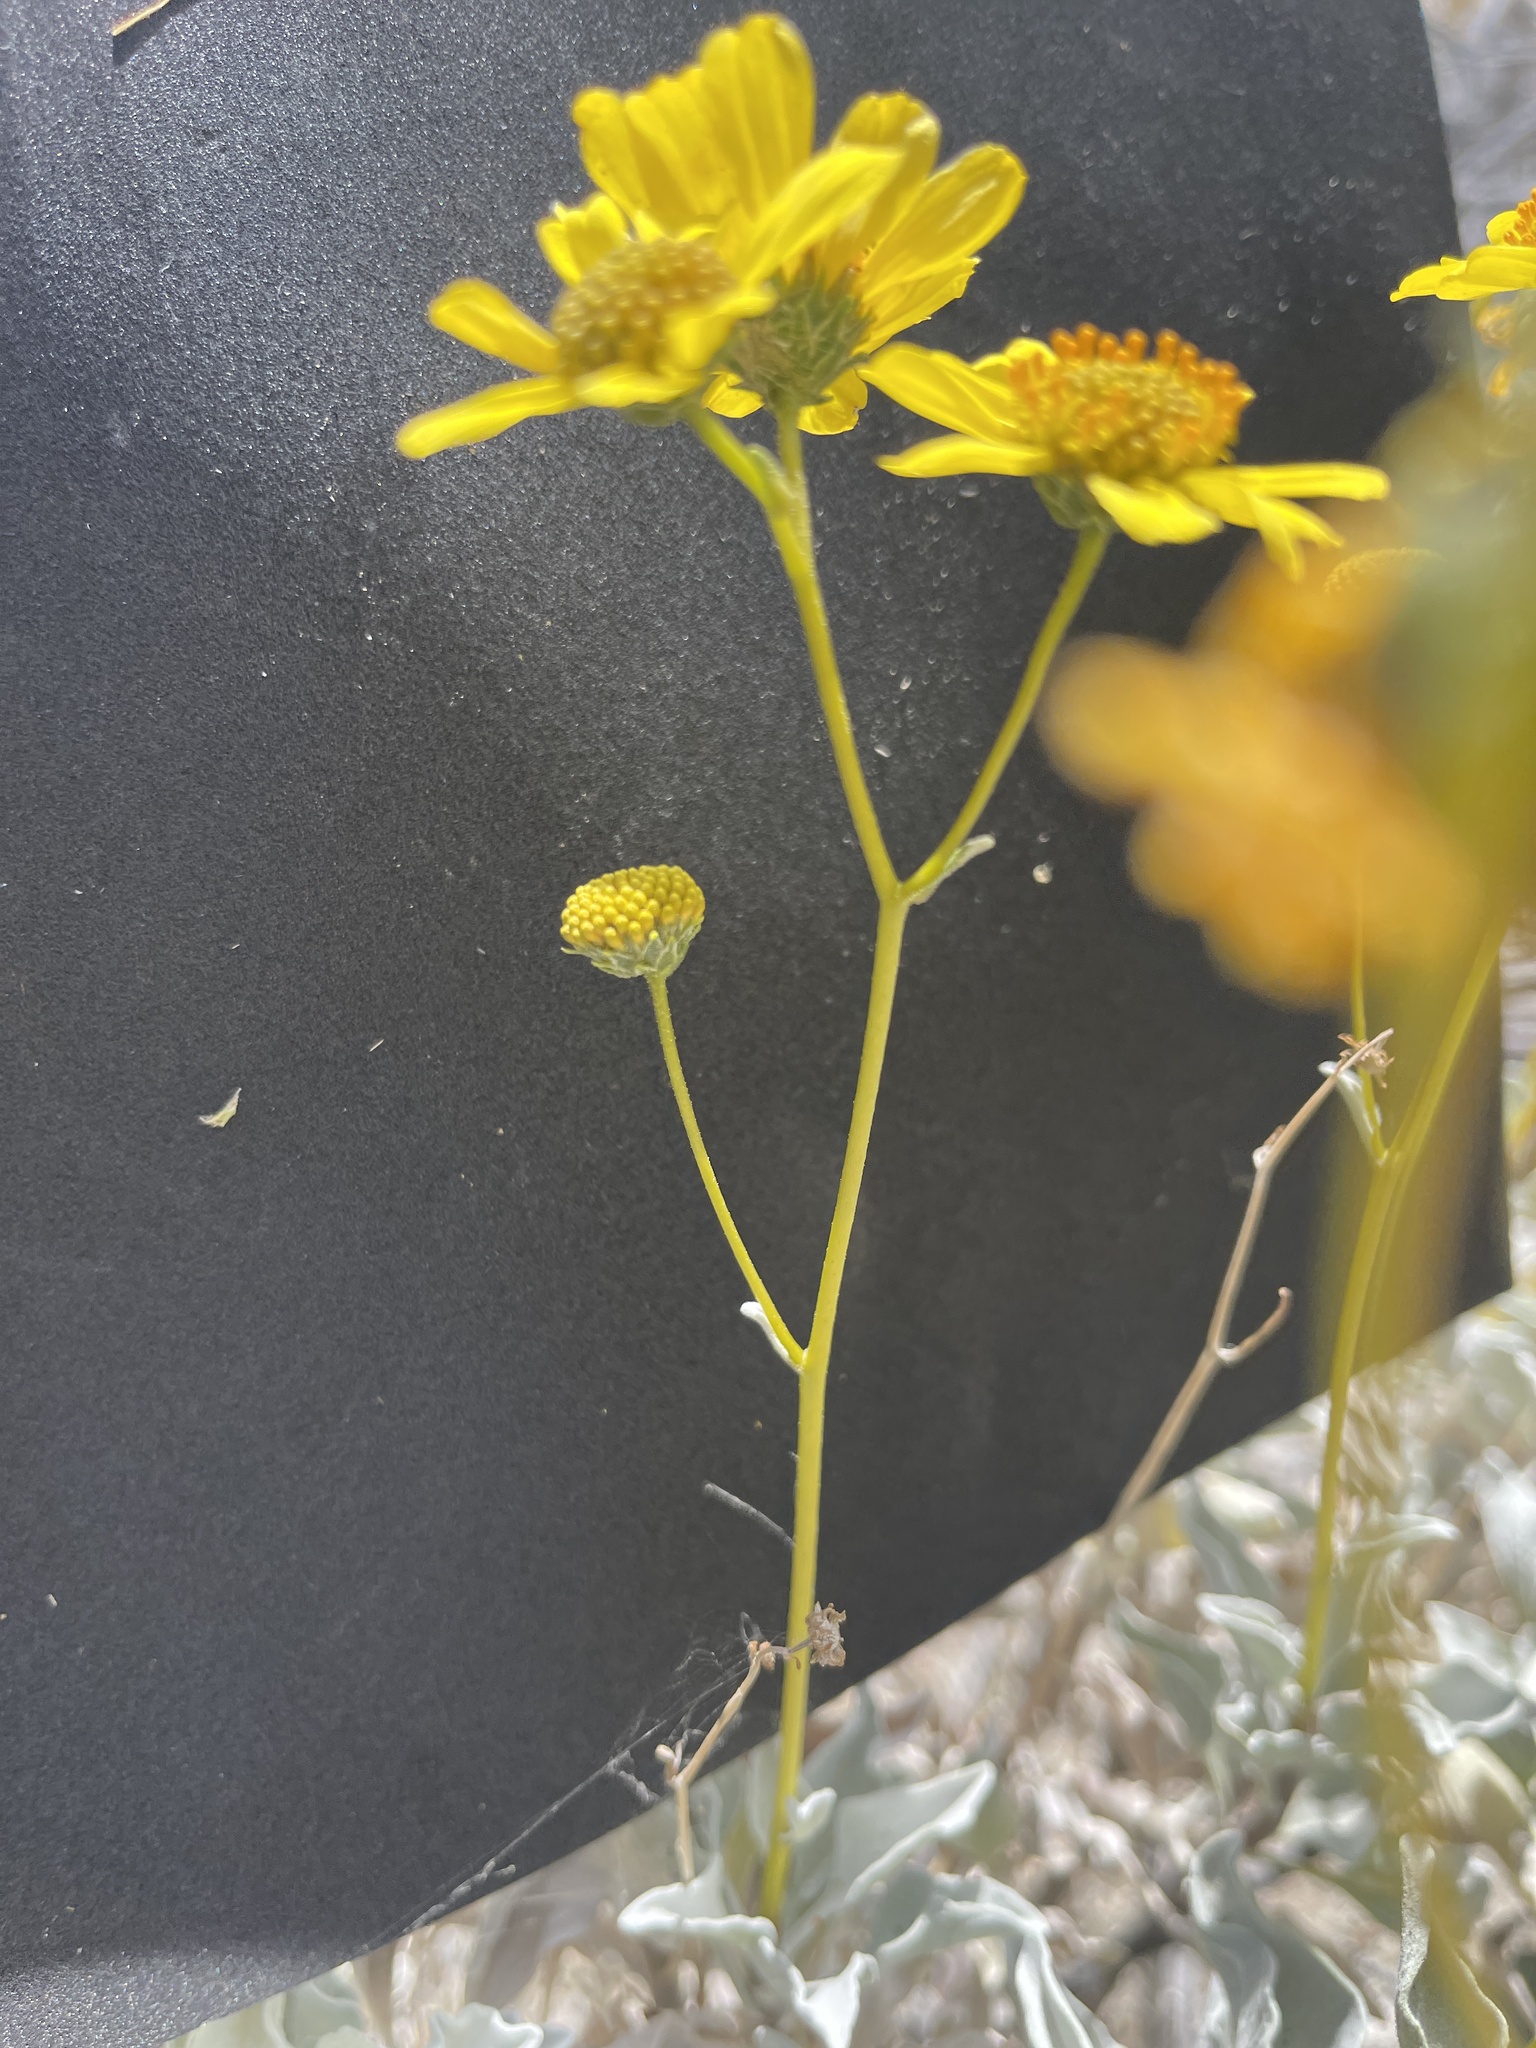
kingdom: Plantae
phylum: Tracheophyta
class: Magnoliopsida
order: Asterales
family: Asteraceae
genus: Encelia
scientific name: Encelia farinosa
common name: Brittlebush
